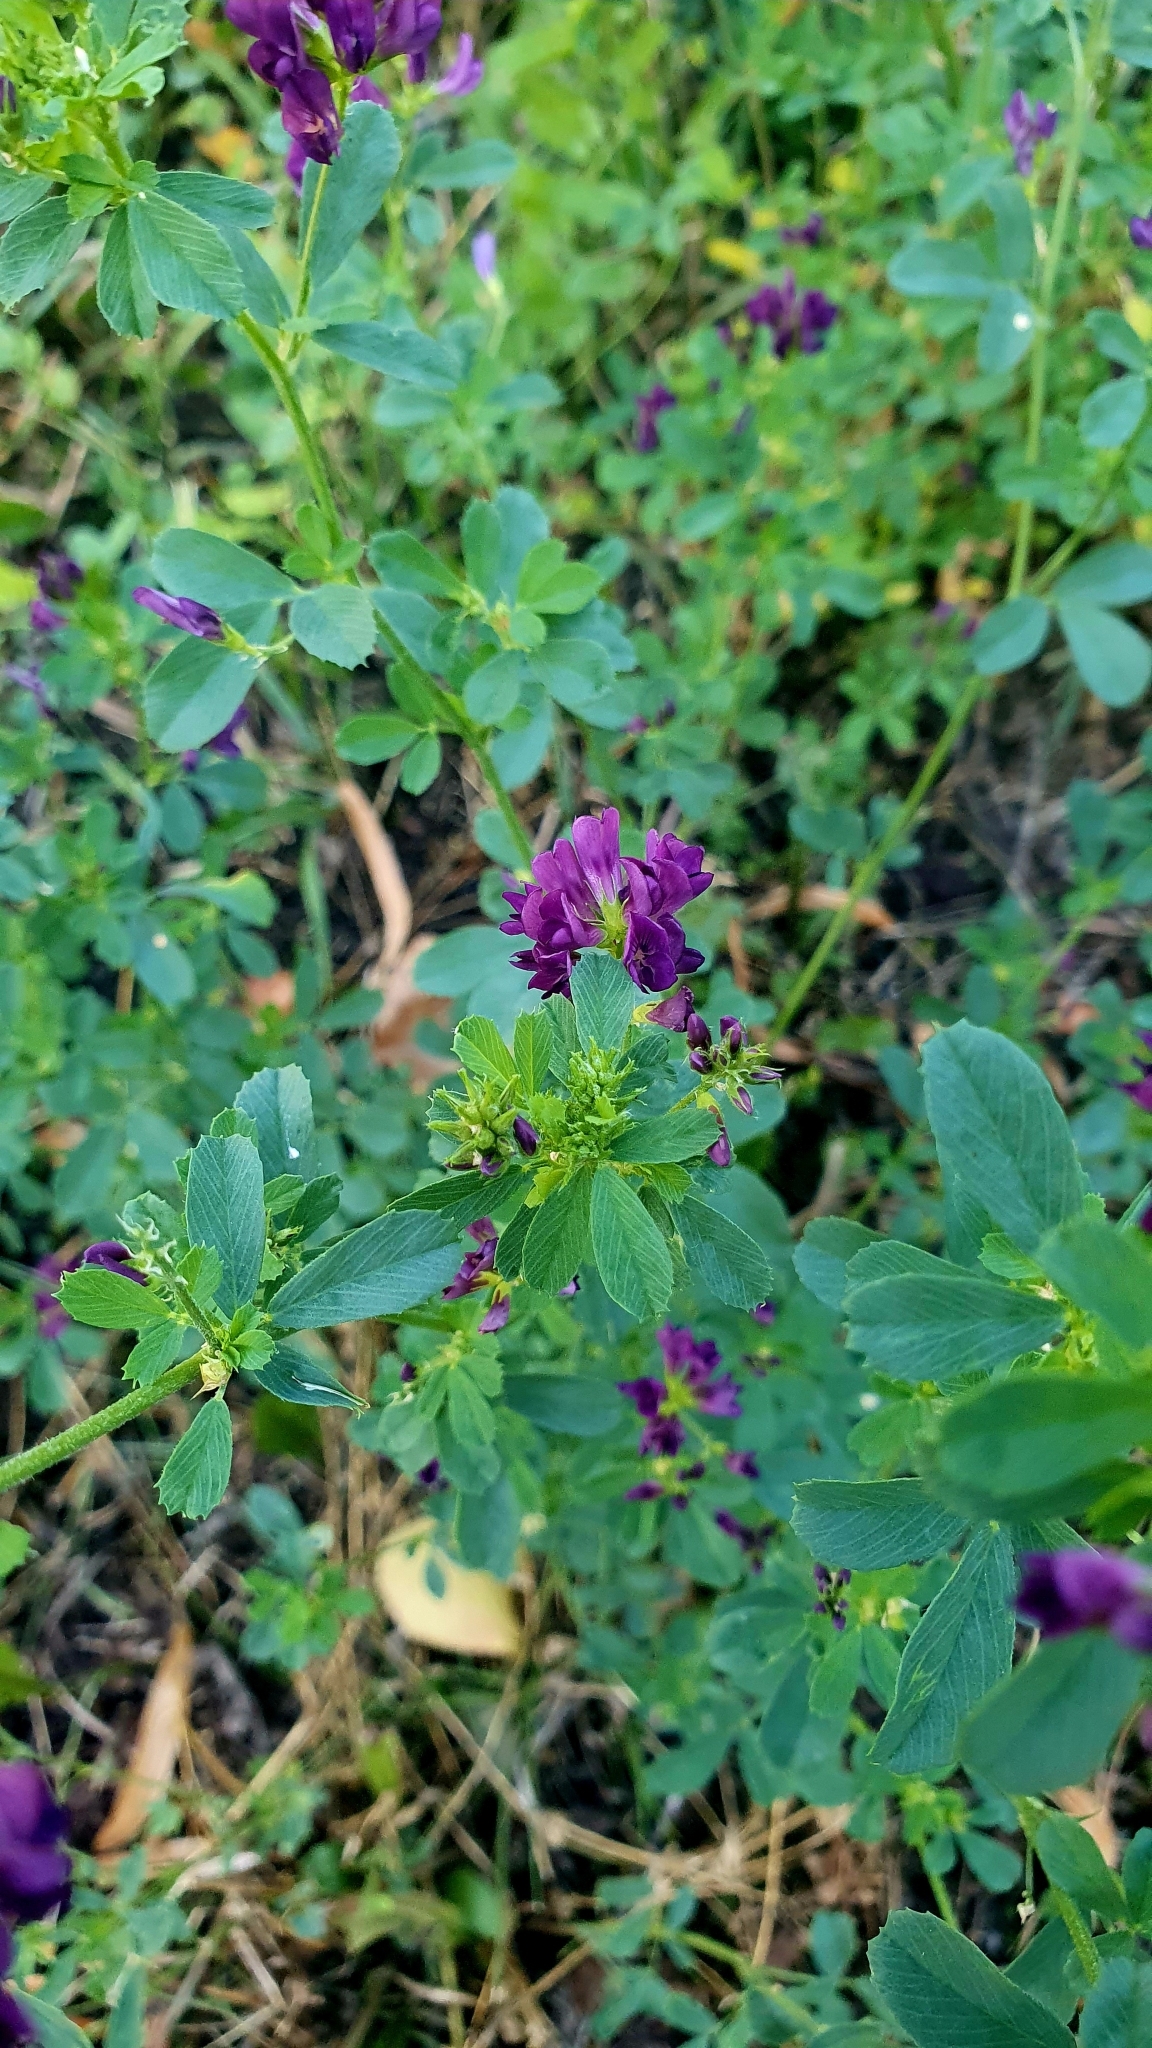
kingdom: Plantae
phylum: Tracheophyta
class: Magnoliopsida
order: Fabales
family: Fabaceae
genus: Medicago
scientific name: Medicago sativa
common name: Alfalfa
